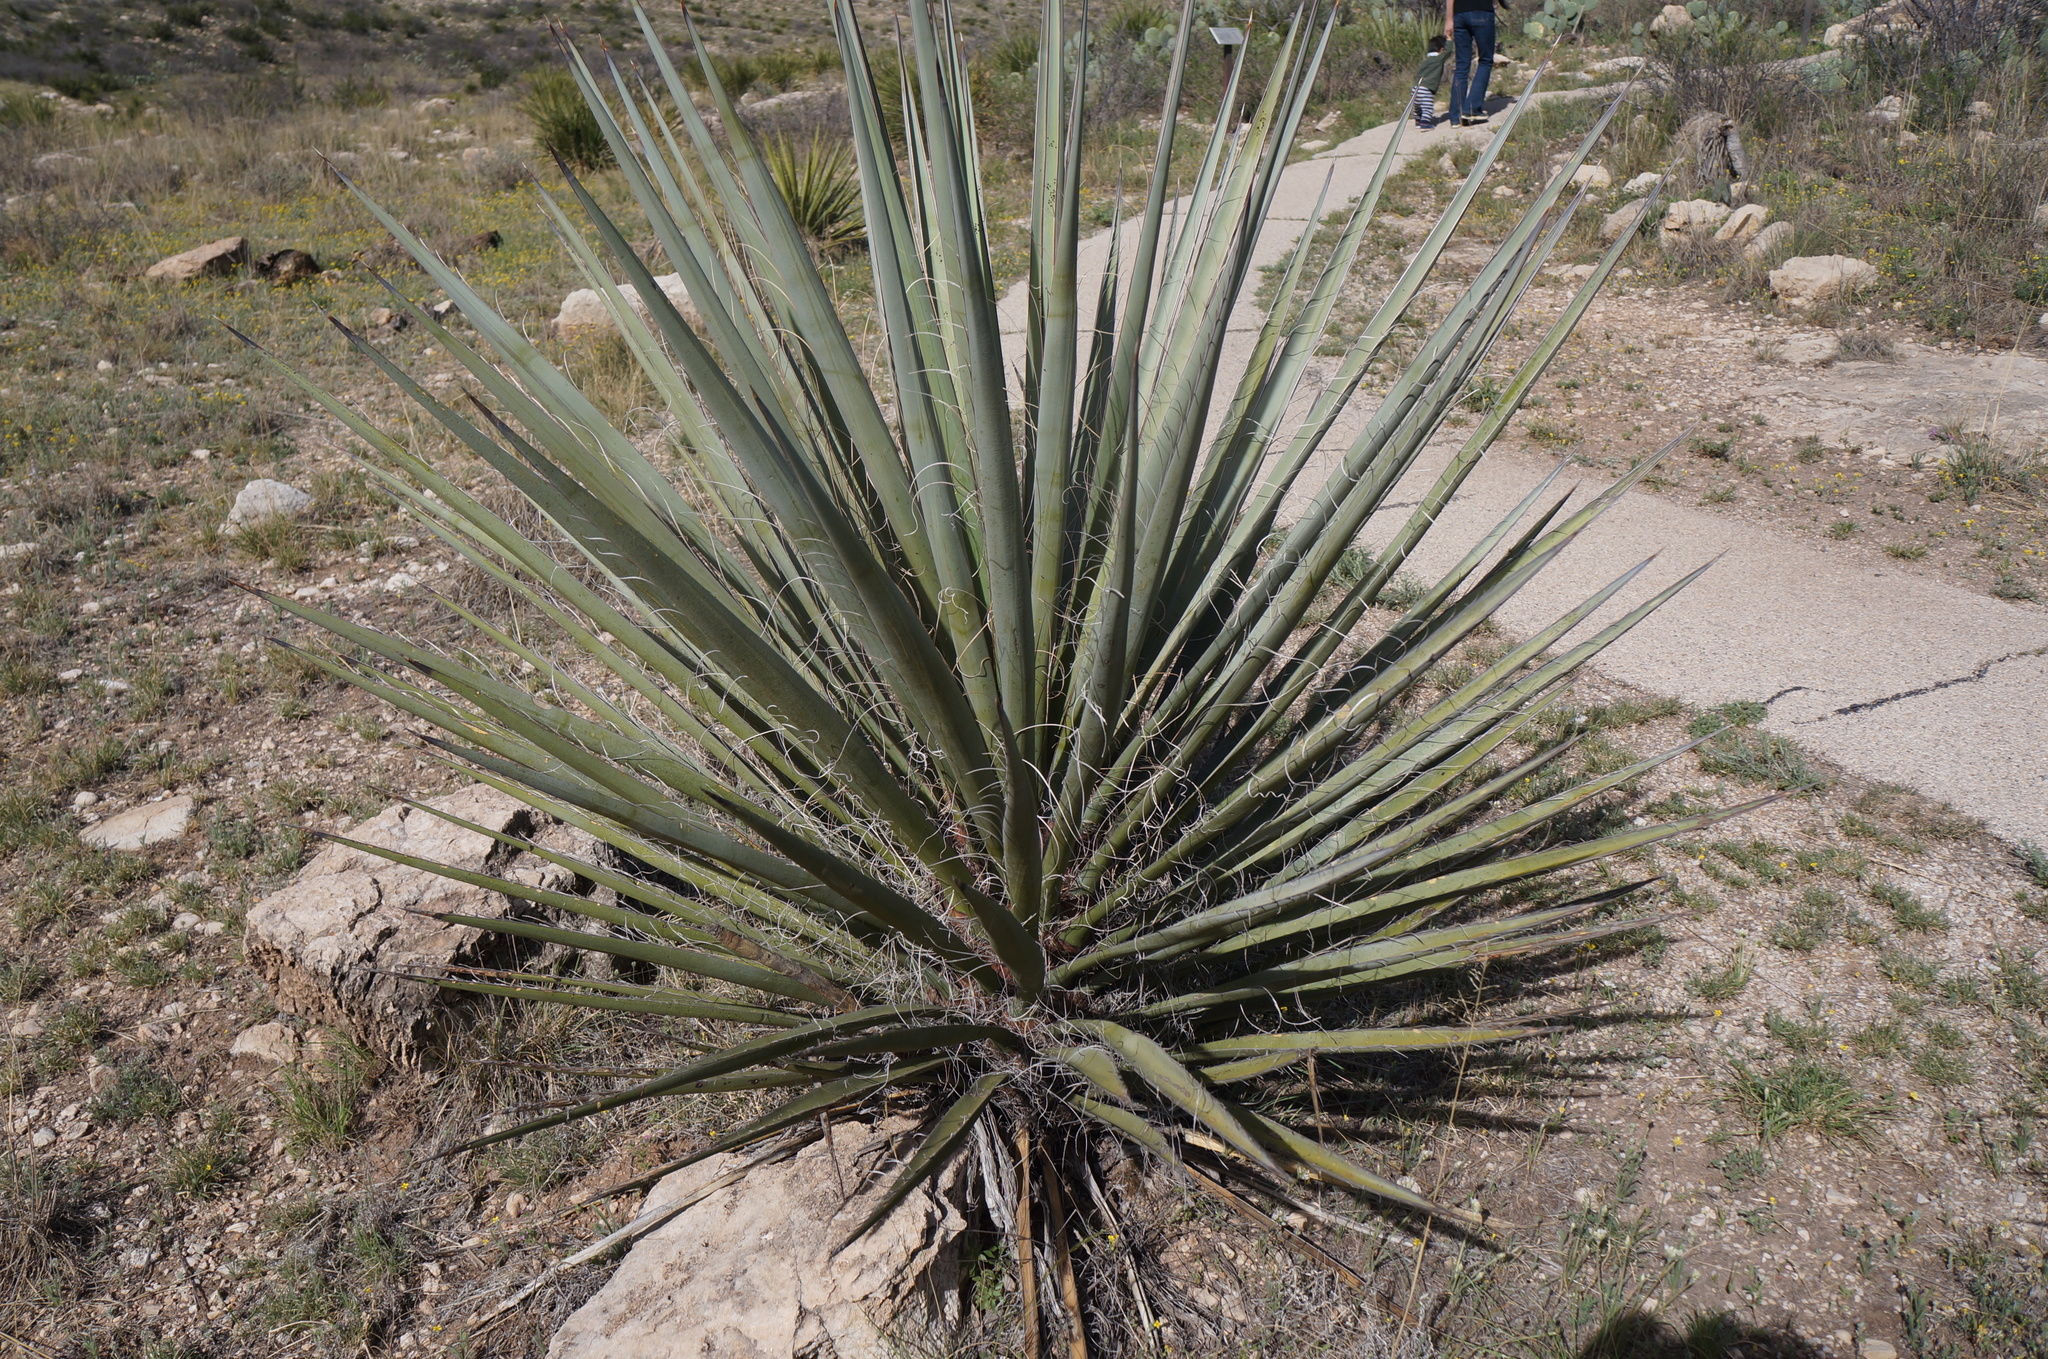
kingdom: Plantae
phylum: Tracheophyta
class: Liliopsida
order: Asparagales
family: Asparagaceae
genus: Yucca
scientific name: Yucca treculiana
